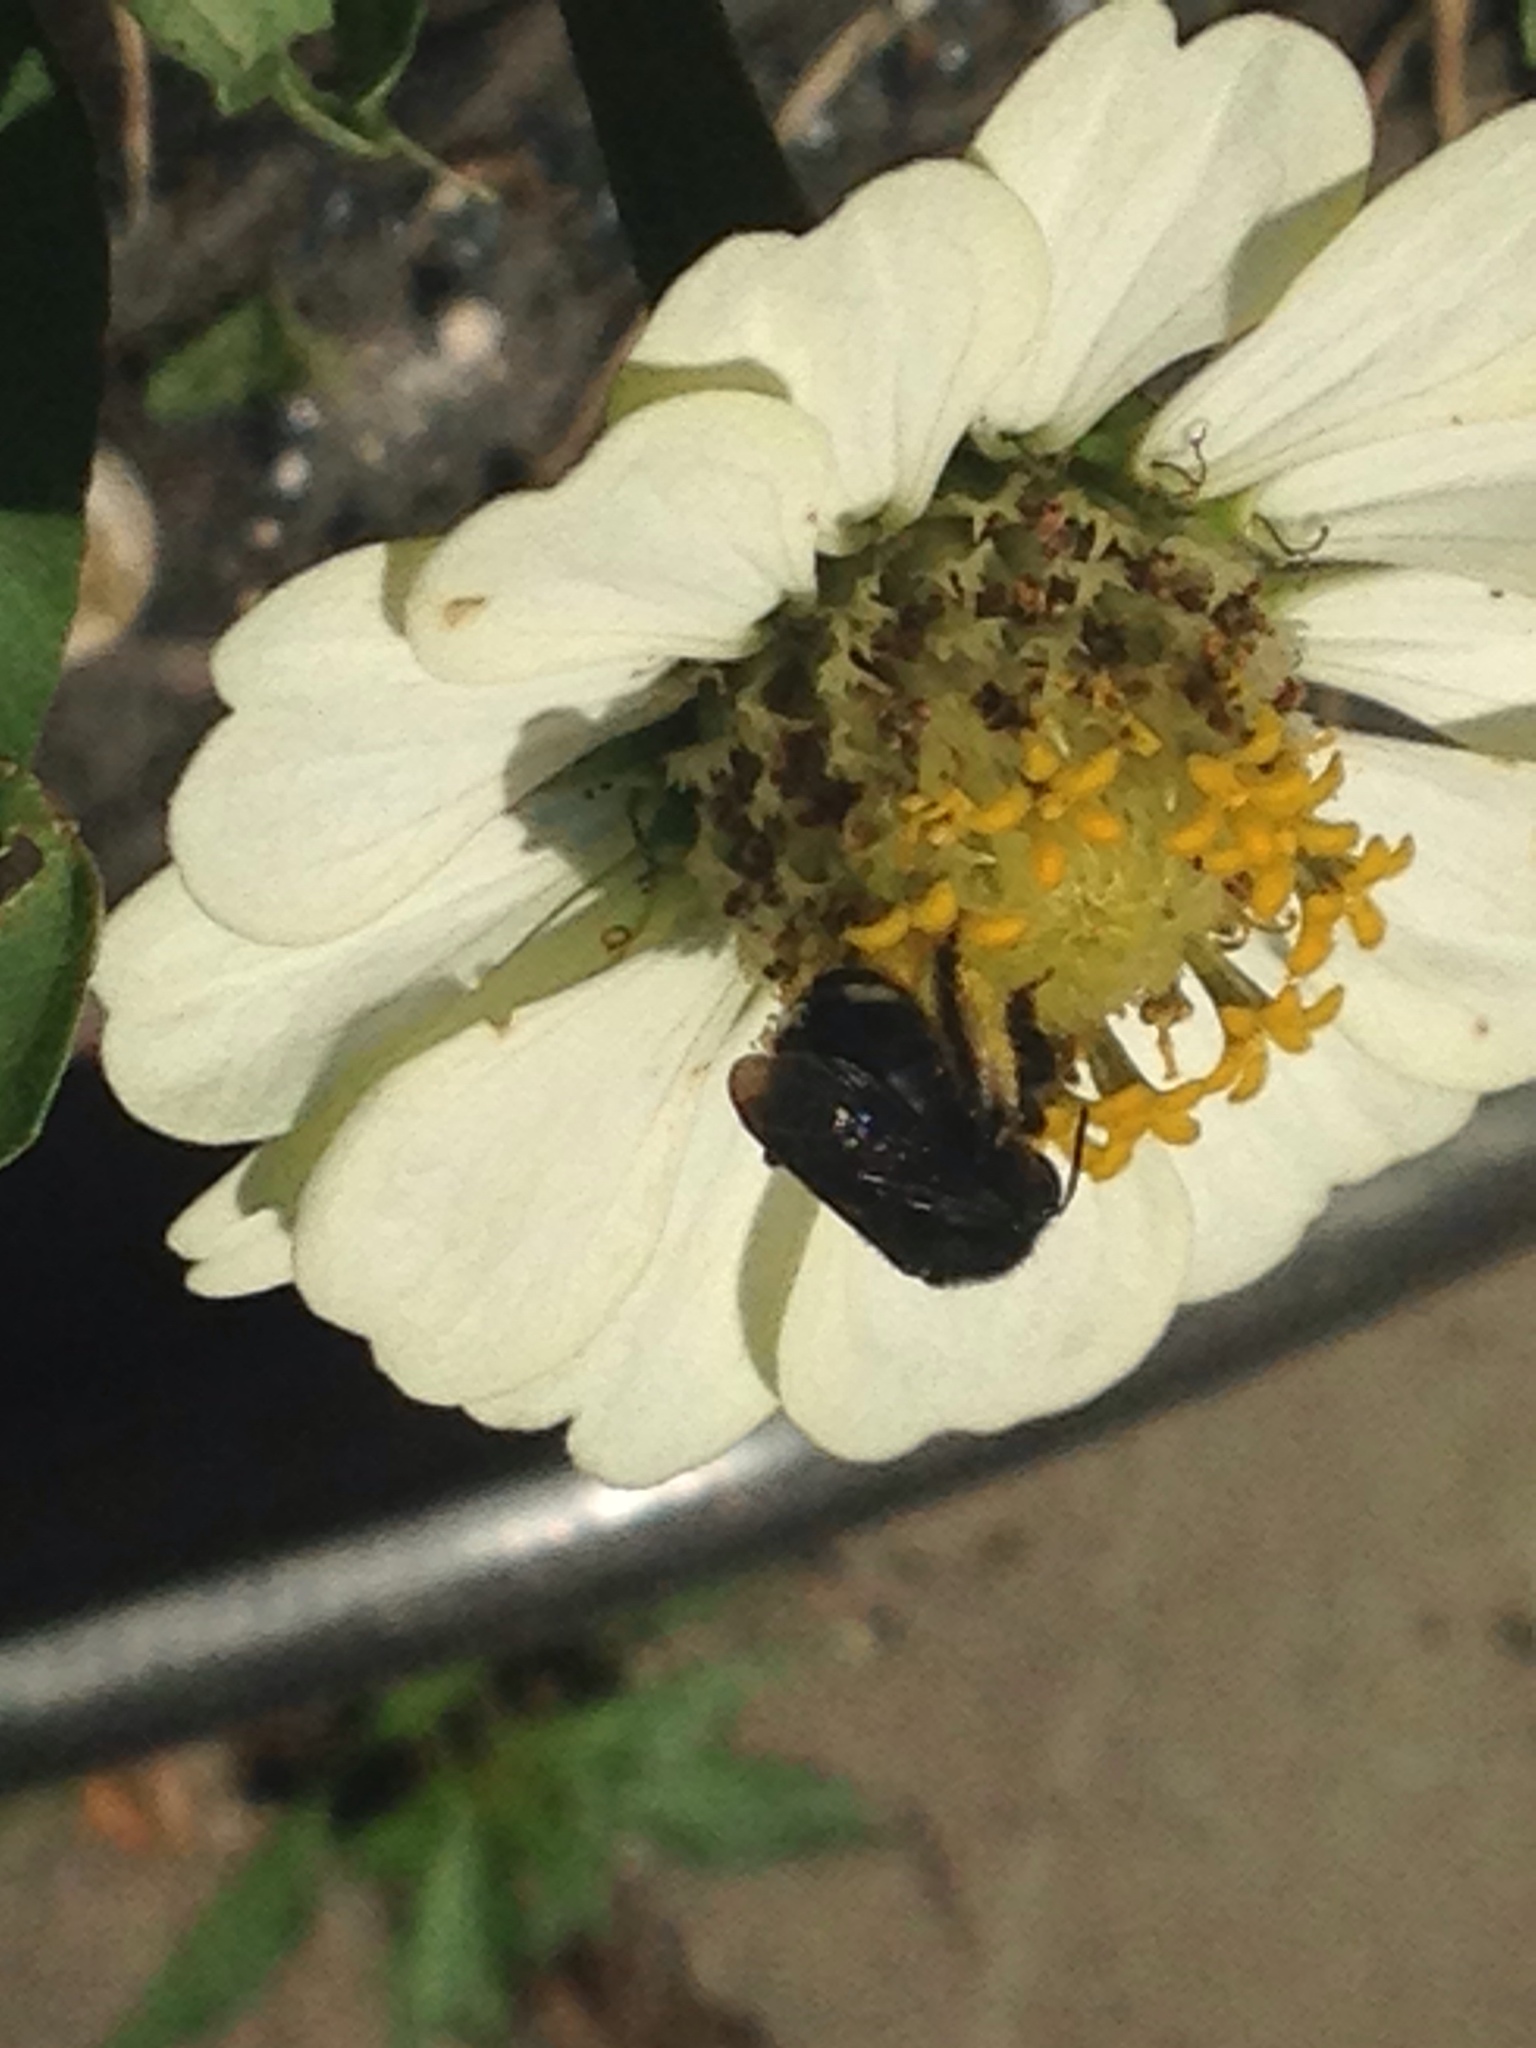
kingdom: Animalia
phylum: Arthropoda
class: Insecta
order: Hymenoptera
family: Apidae
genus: Melissodes
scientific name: Melissodes bimaculatus
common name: Two-spotted long-horned bee
